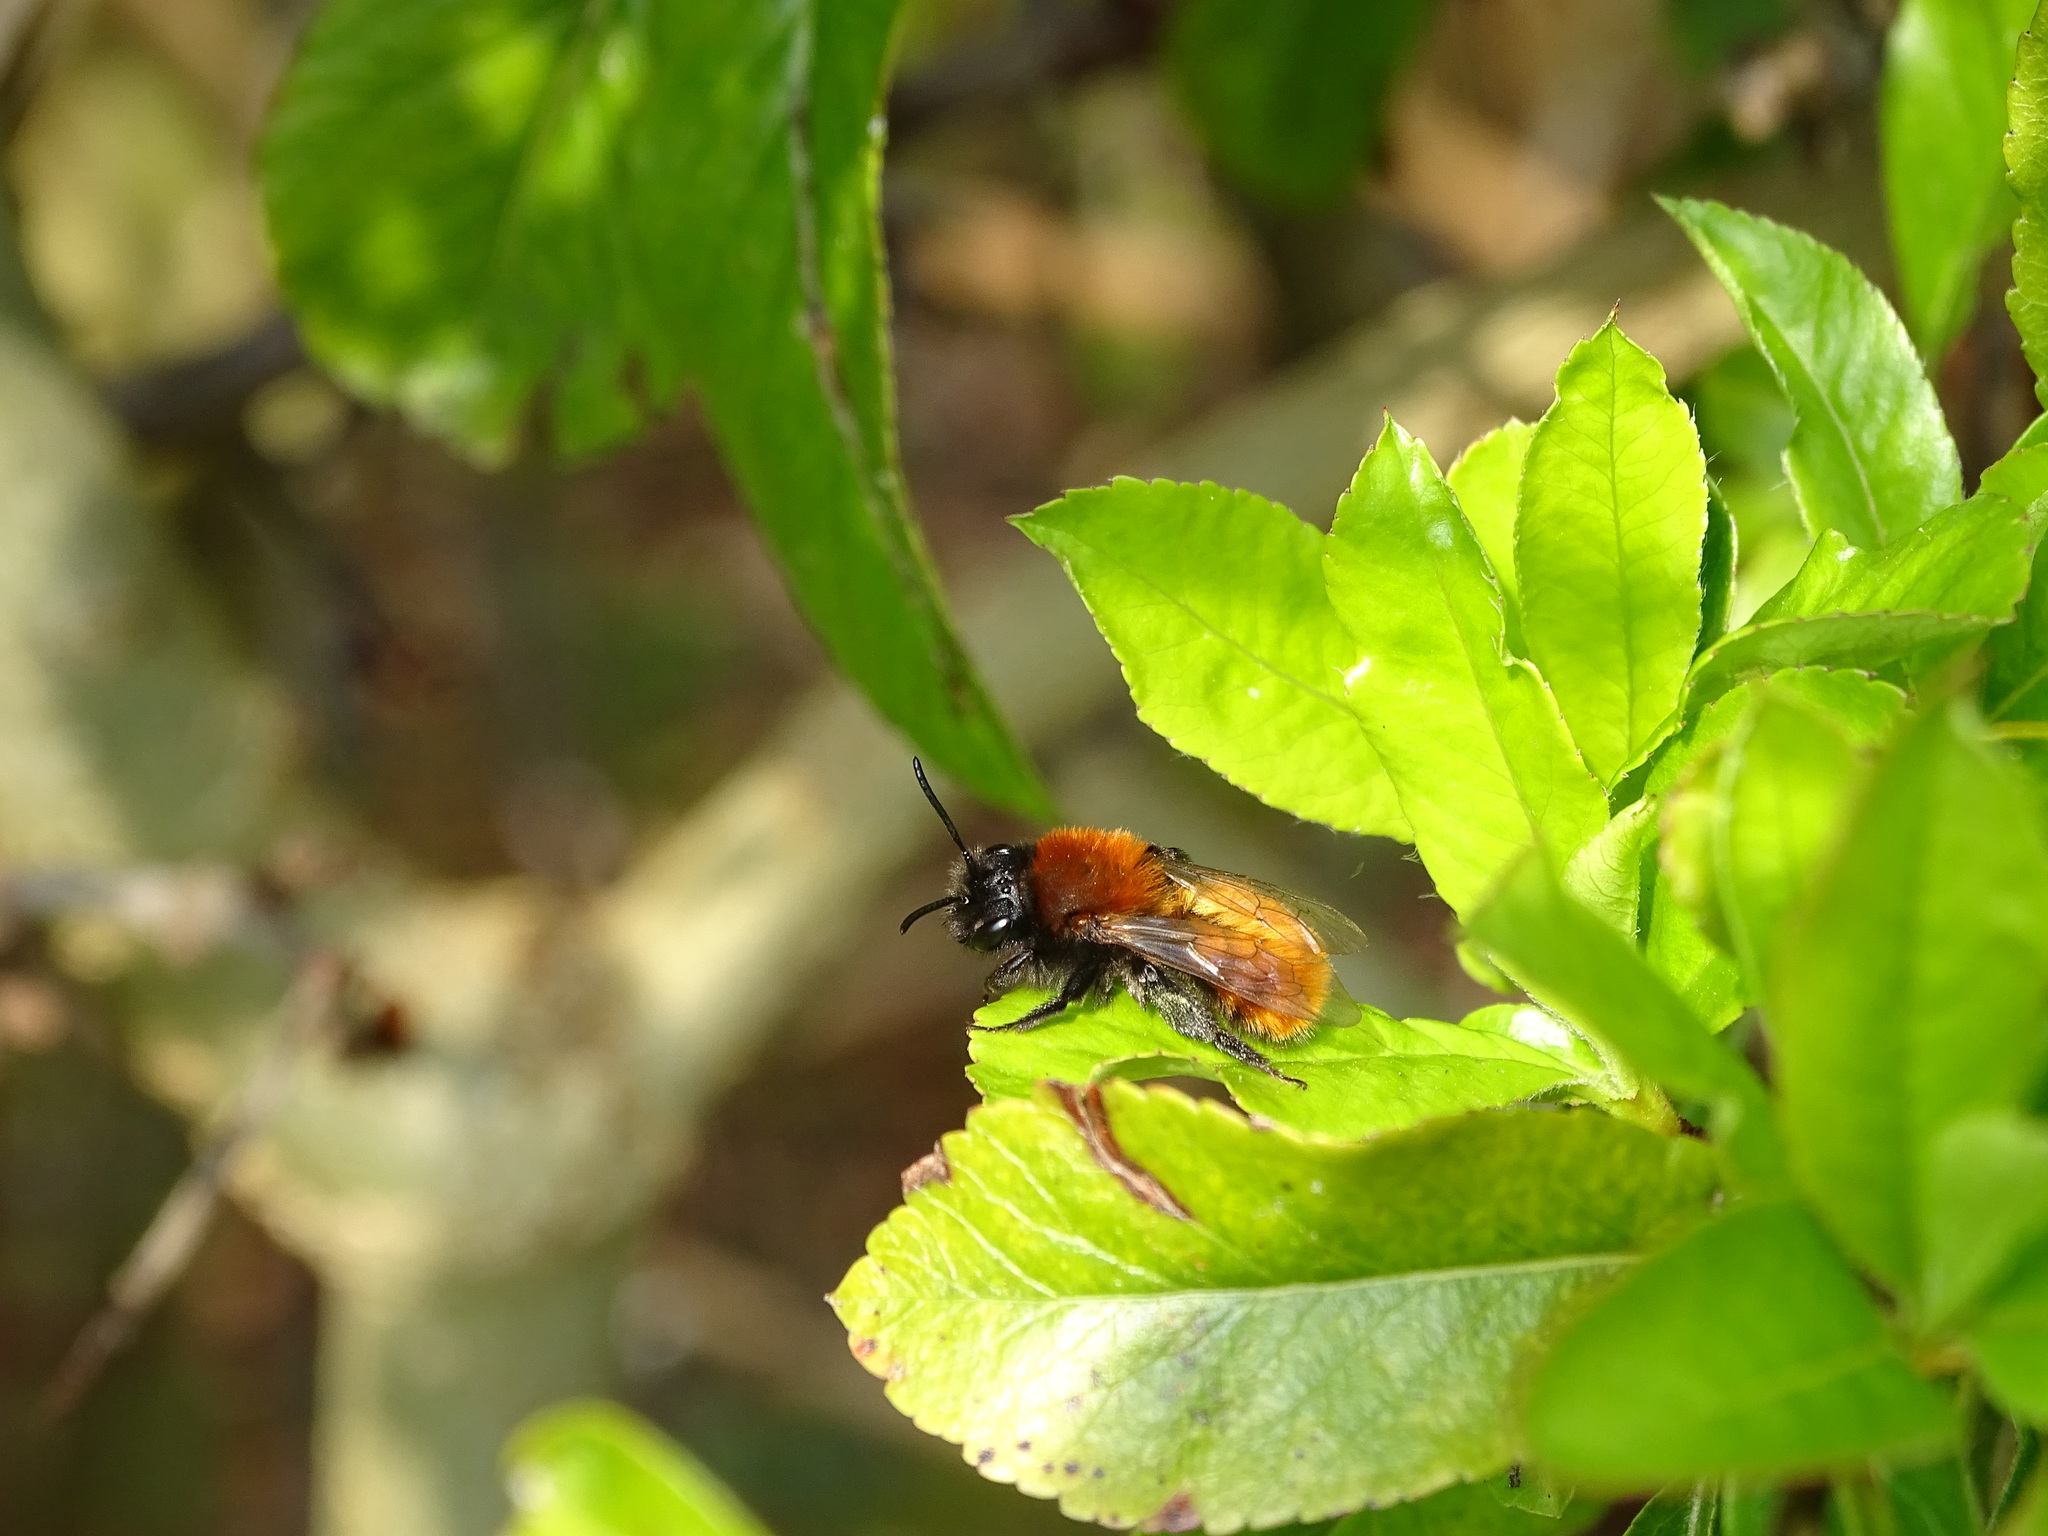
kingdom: Animalia
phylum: Arthropoda
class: Insecta
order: Hymenoptera
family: Andrenidae
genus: Andrena
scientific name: Andrena fulva
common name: Tawny mining bee
